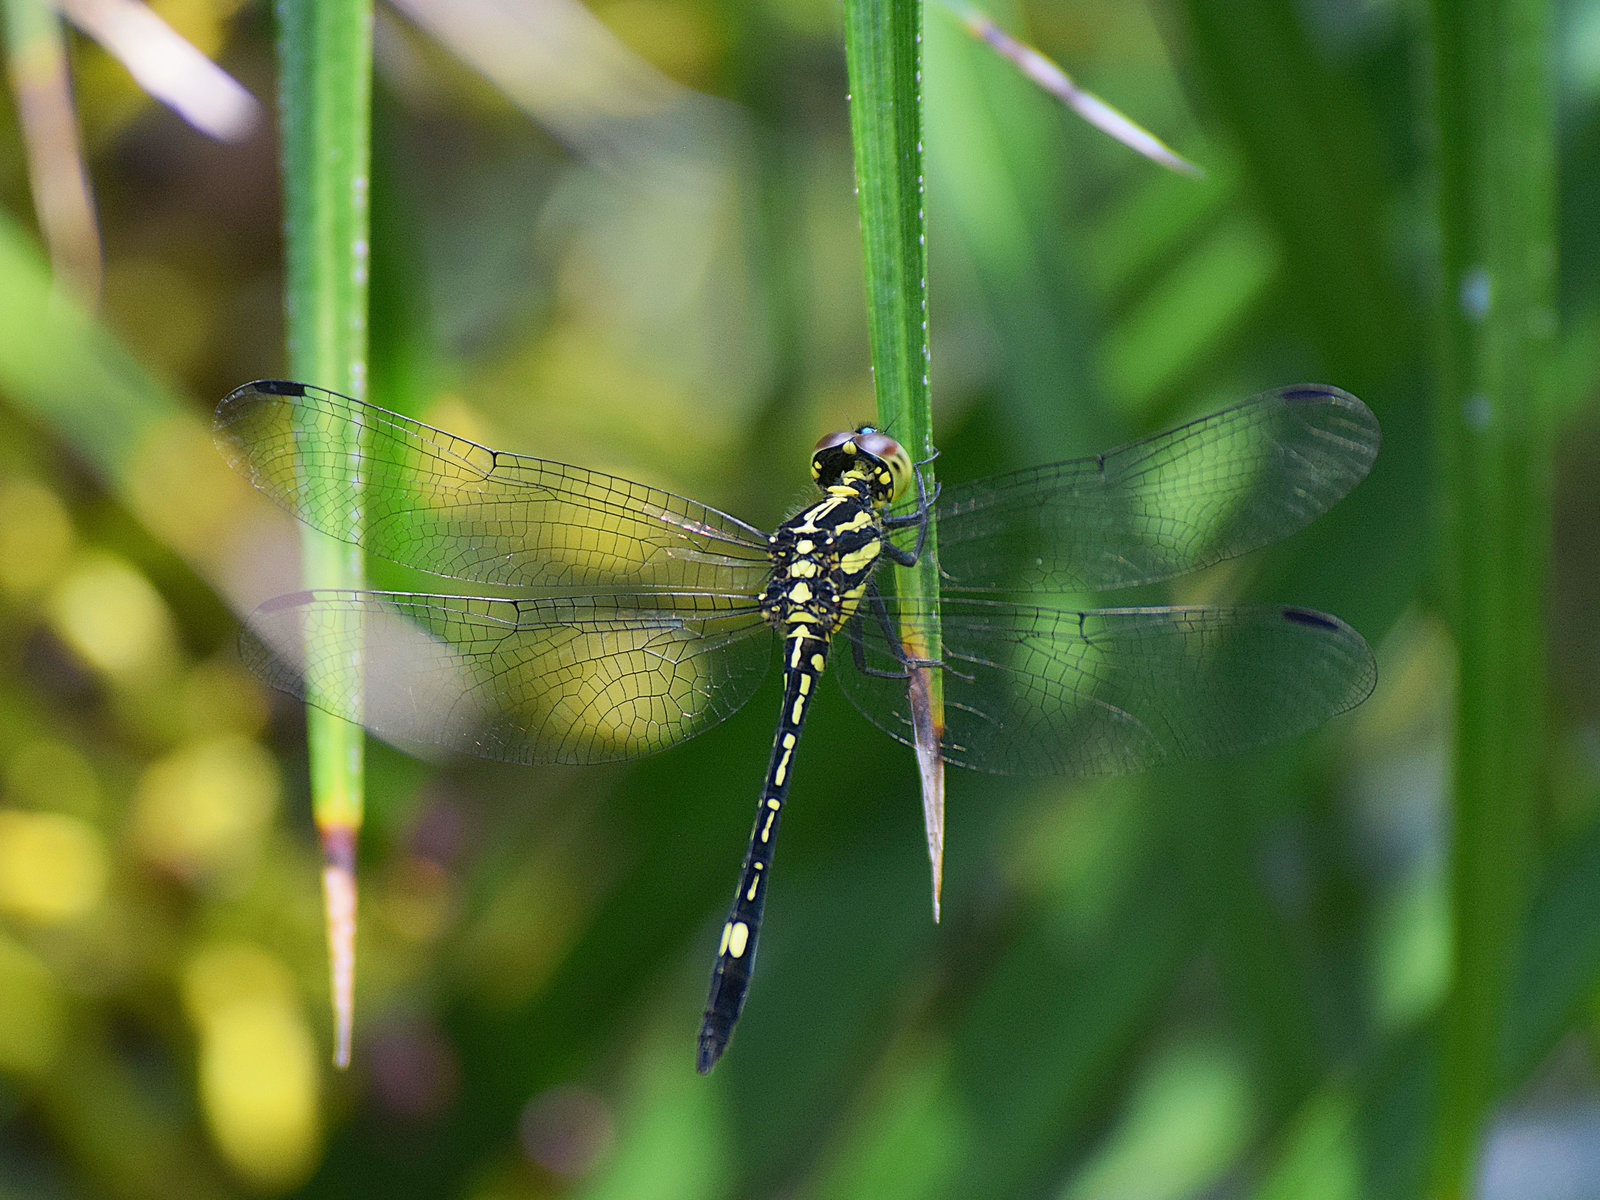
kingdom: Animalia
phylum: Arthropoda
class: Insecta
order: Odonata
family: Libellulidae
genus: Hylaeothemis
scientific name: Hylaeothemis apicalis
